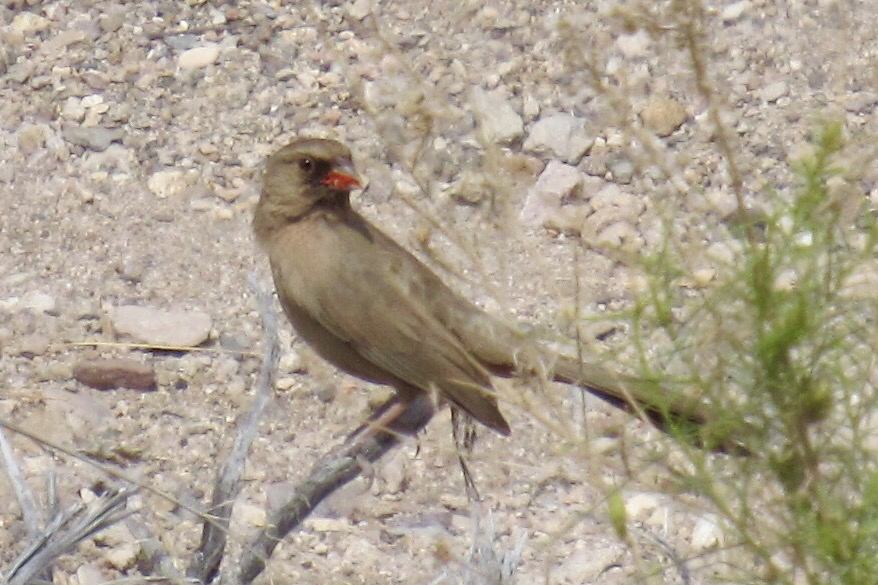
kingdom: Animalia
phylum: Chordata
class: Aves
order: Passeriformes
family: Passerellidae
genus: Melozone
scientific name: Melozone aberti
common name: Abert's towhee
